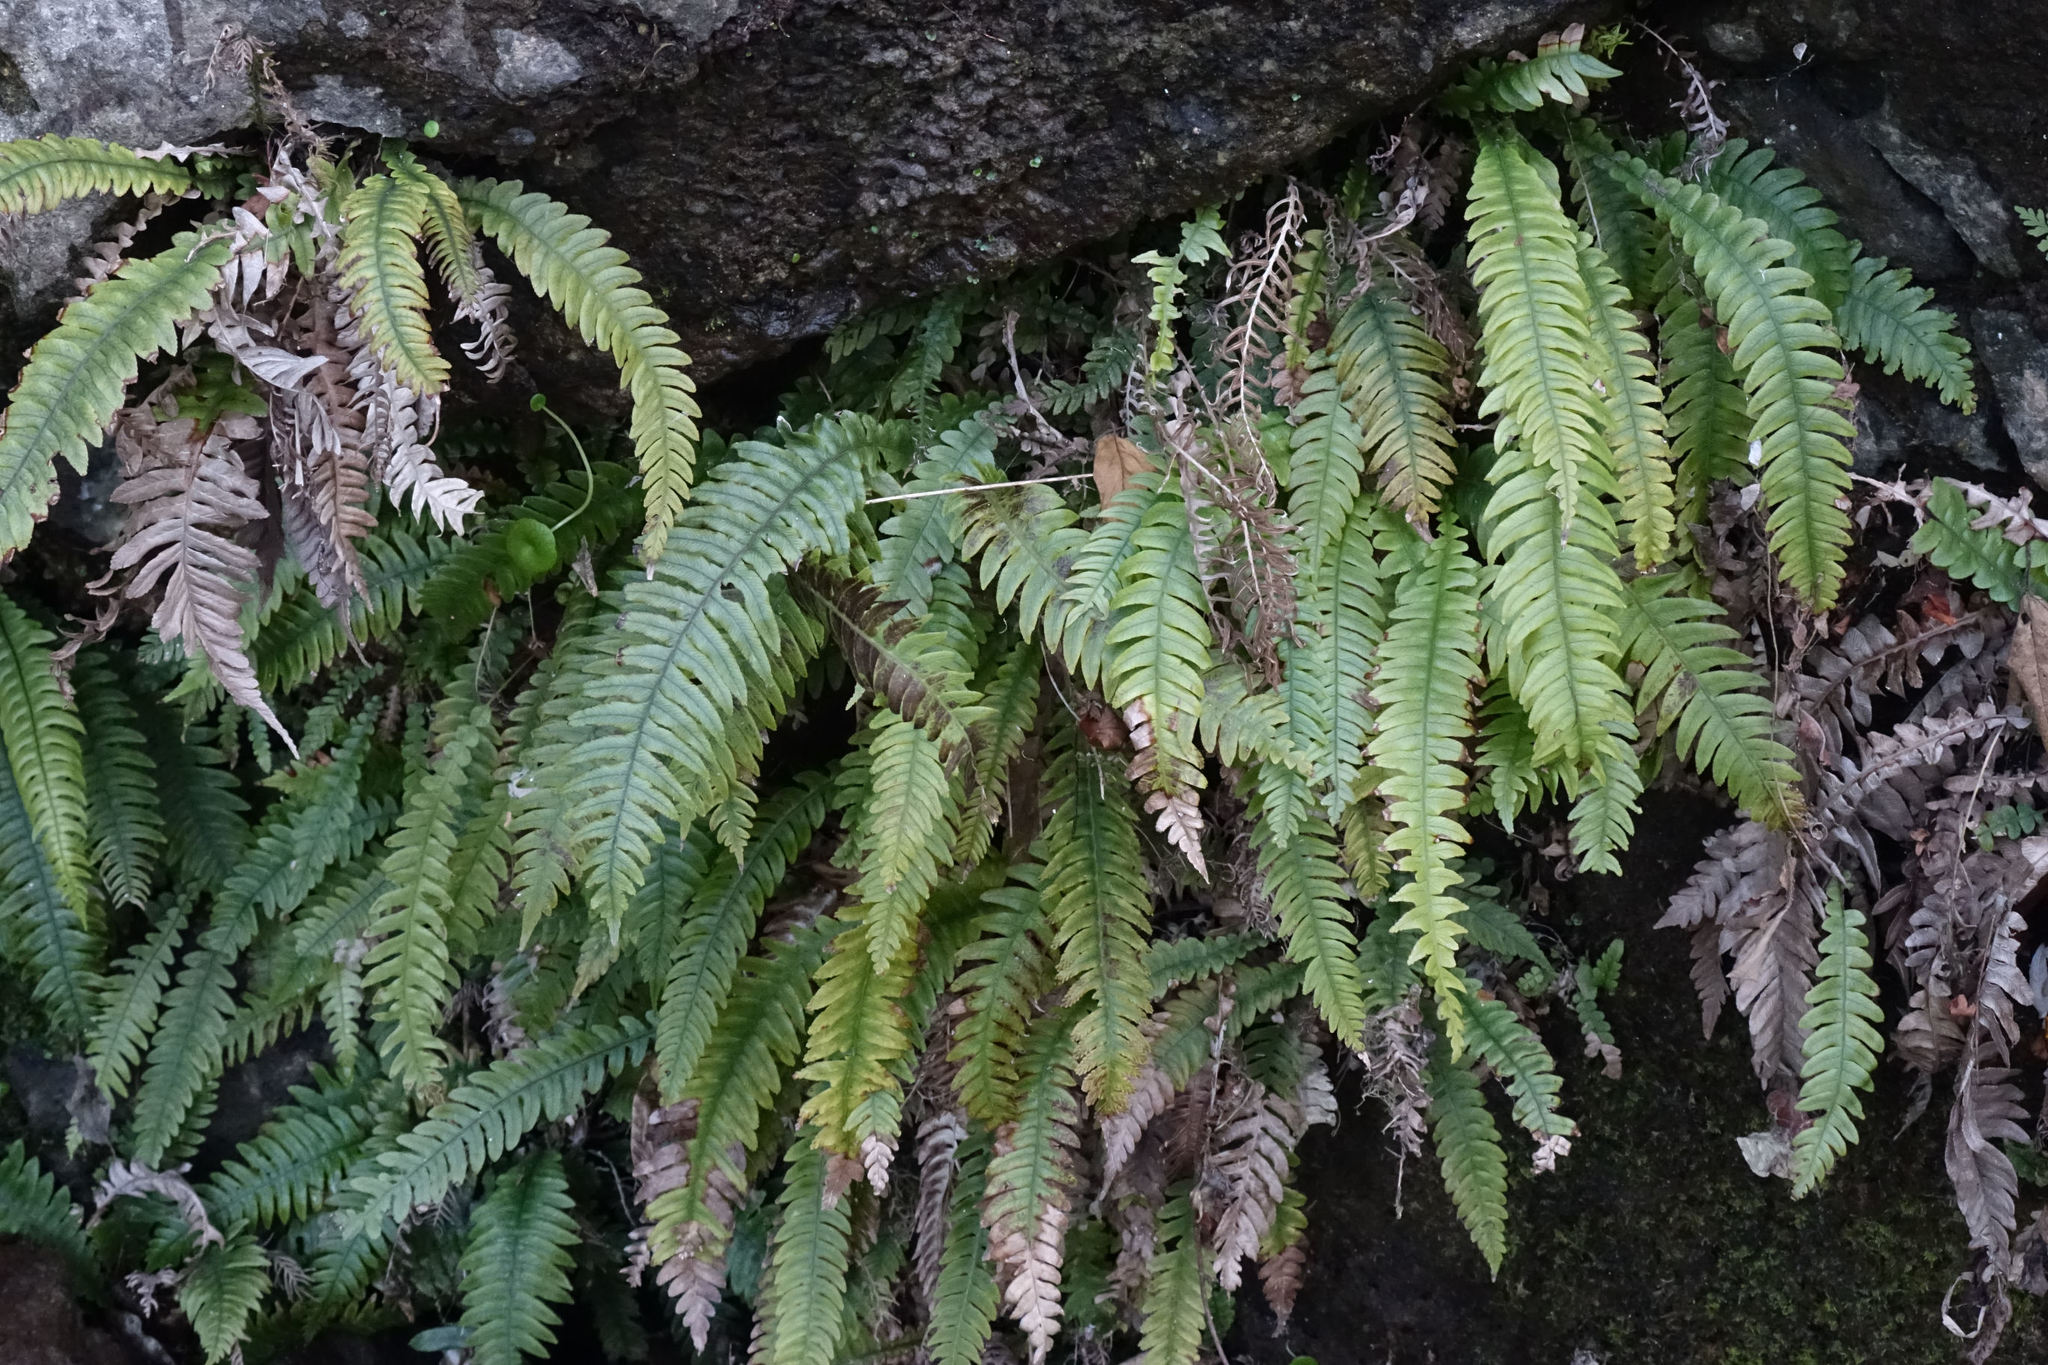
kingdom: Plantae
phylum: Tracheophyta
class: Polypodiopsida
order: Polypodiales
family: Blechnaceae
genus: Austroblechnum
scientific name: Austroblechnum lanceolatum
